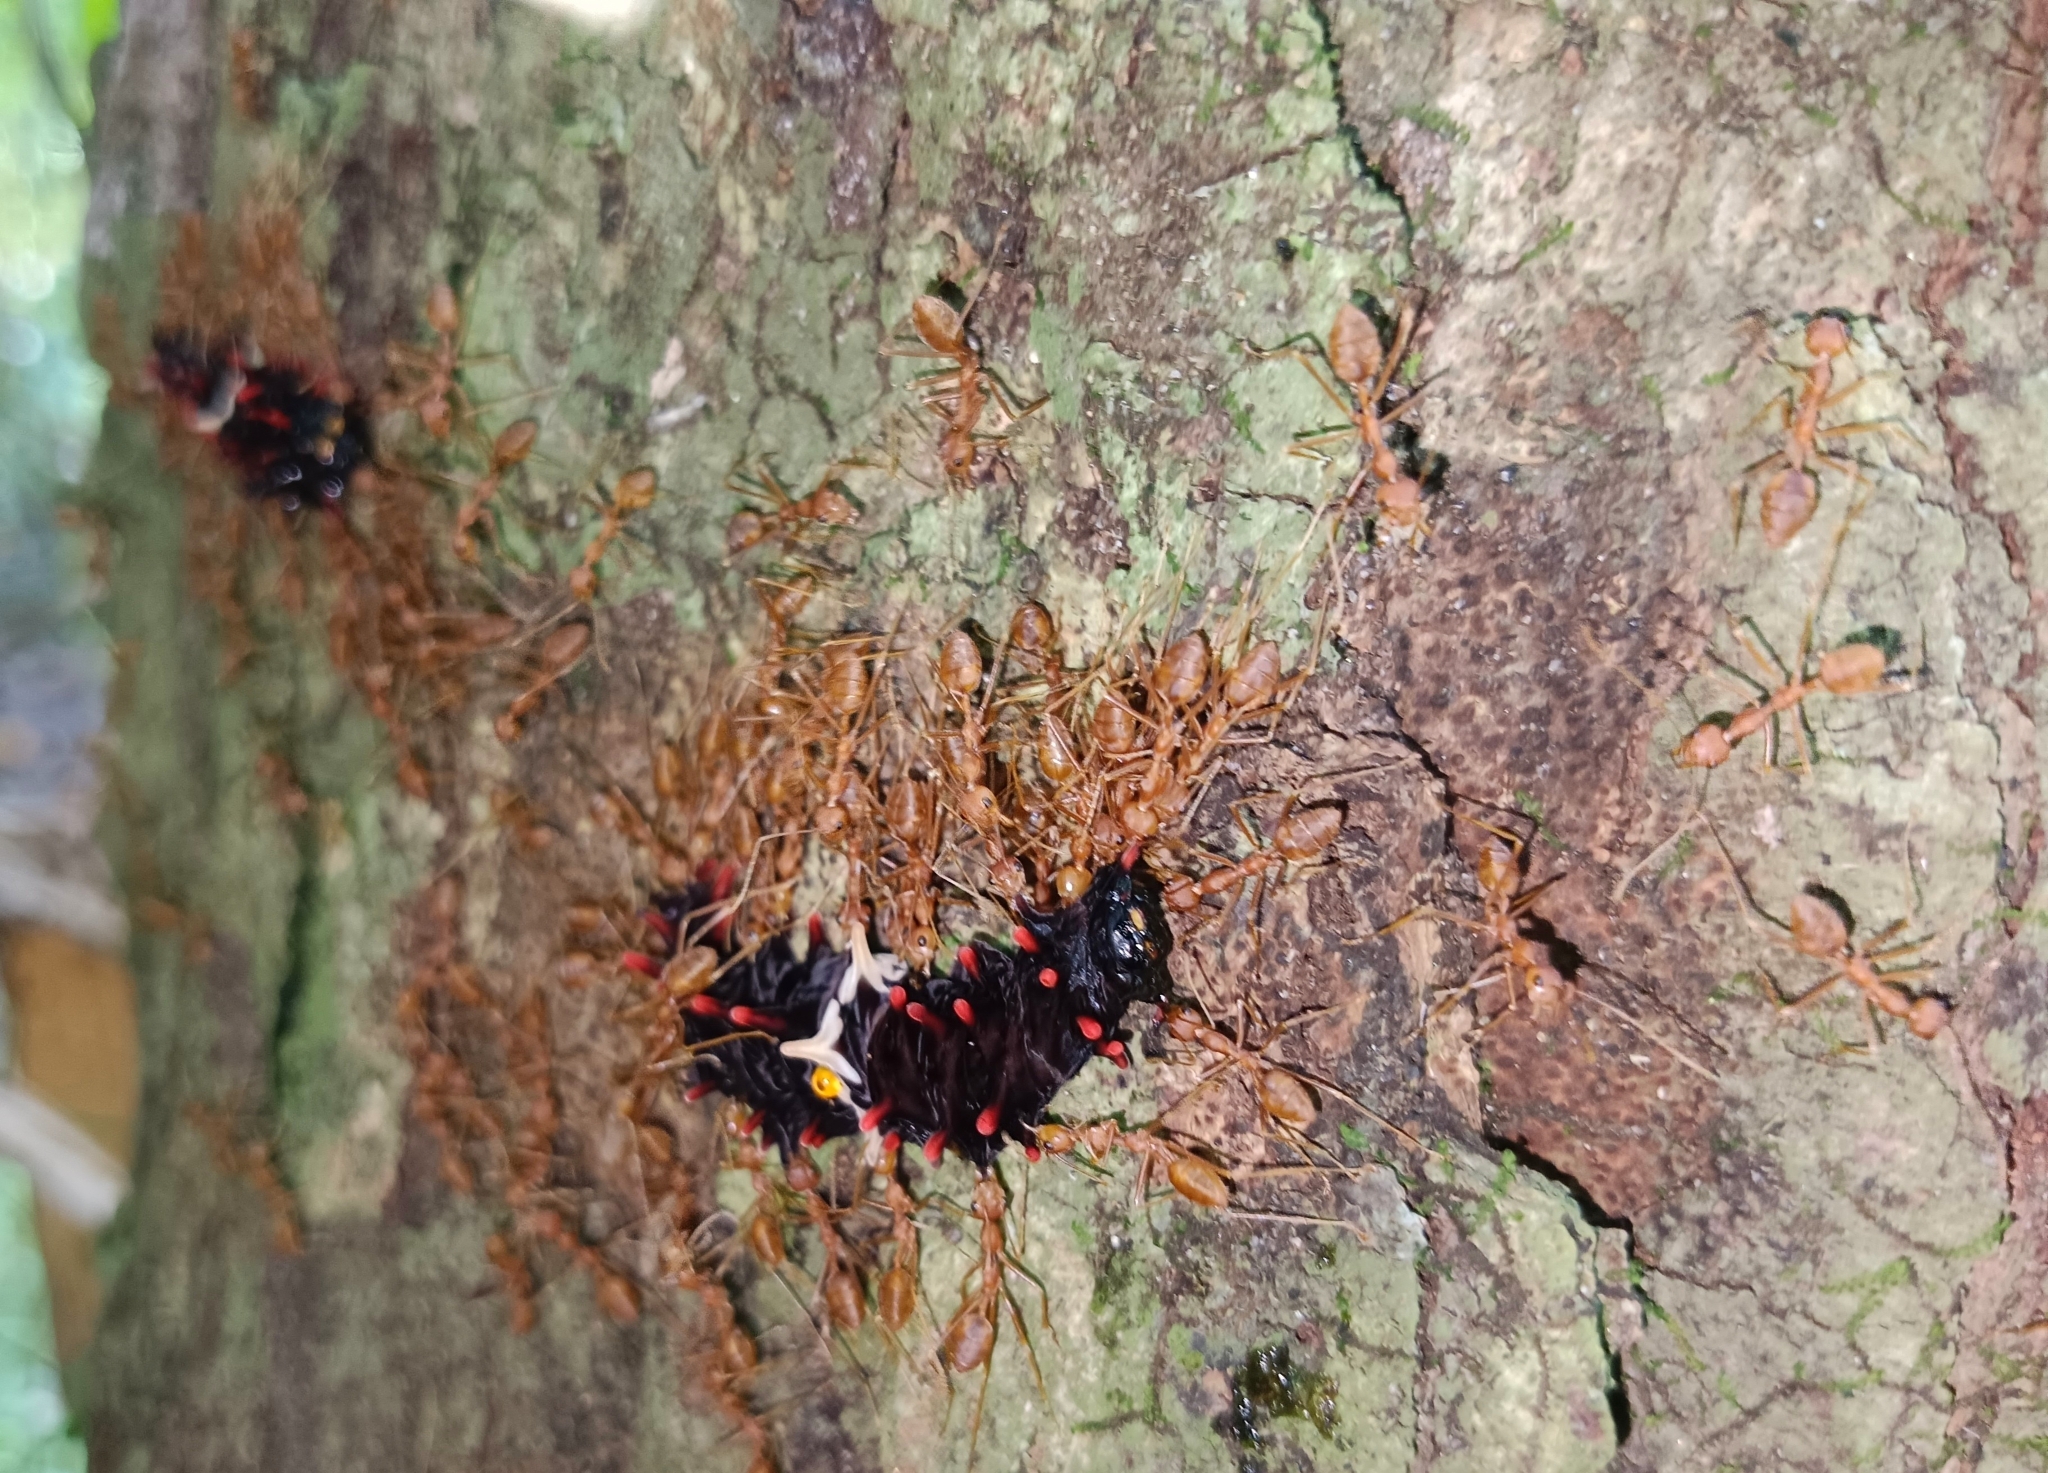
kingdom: Animalia
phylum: Arthropoda
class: Insecta
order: Lepidoptera
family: Papilionidae
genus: Pachliopta
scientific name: Pachliopta aristolochiae
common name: Common rose
